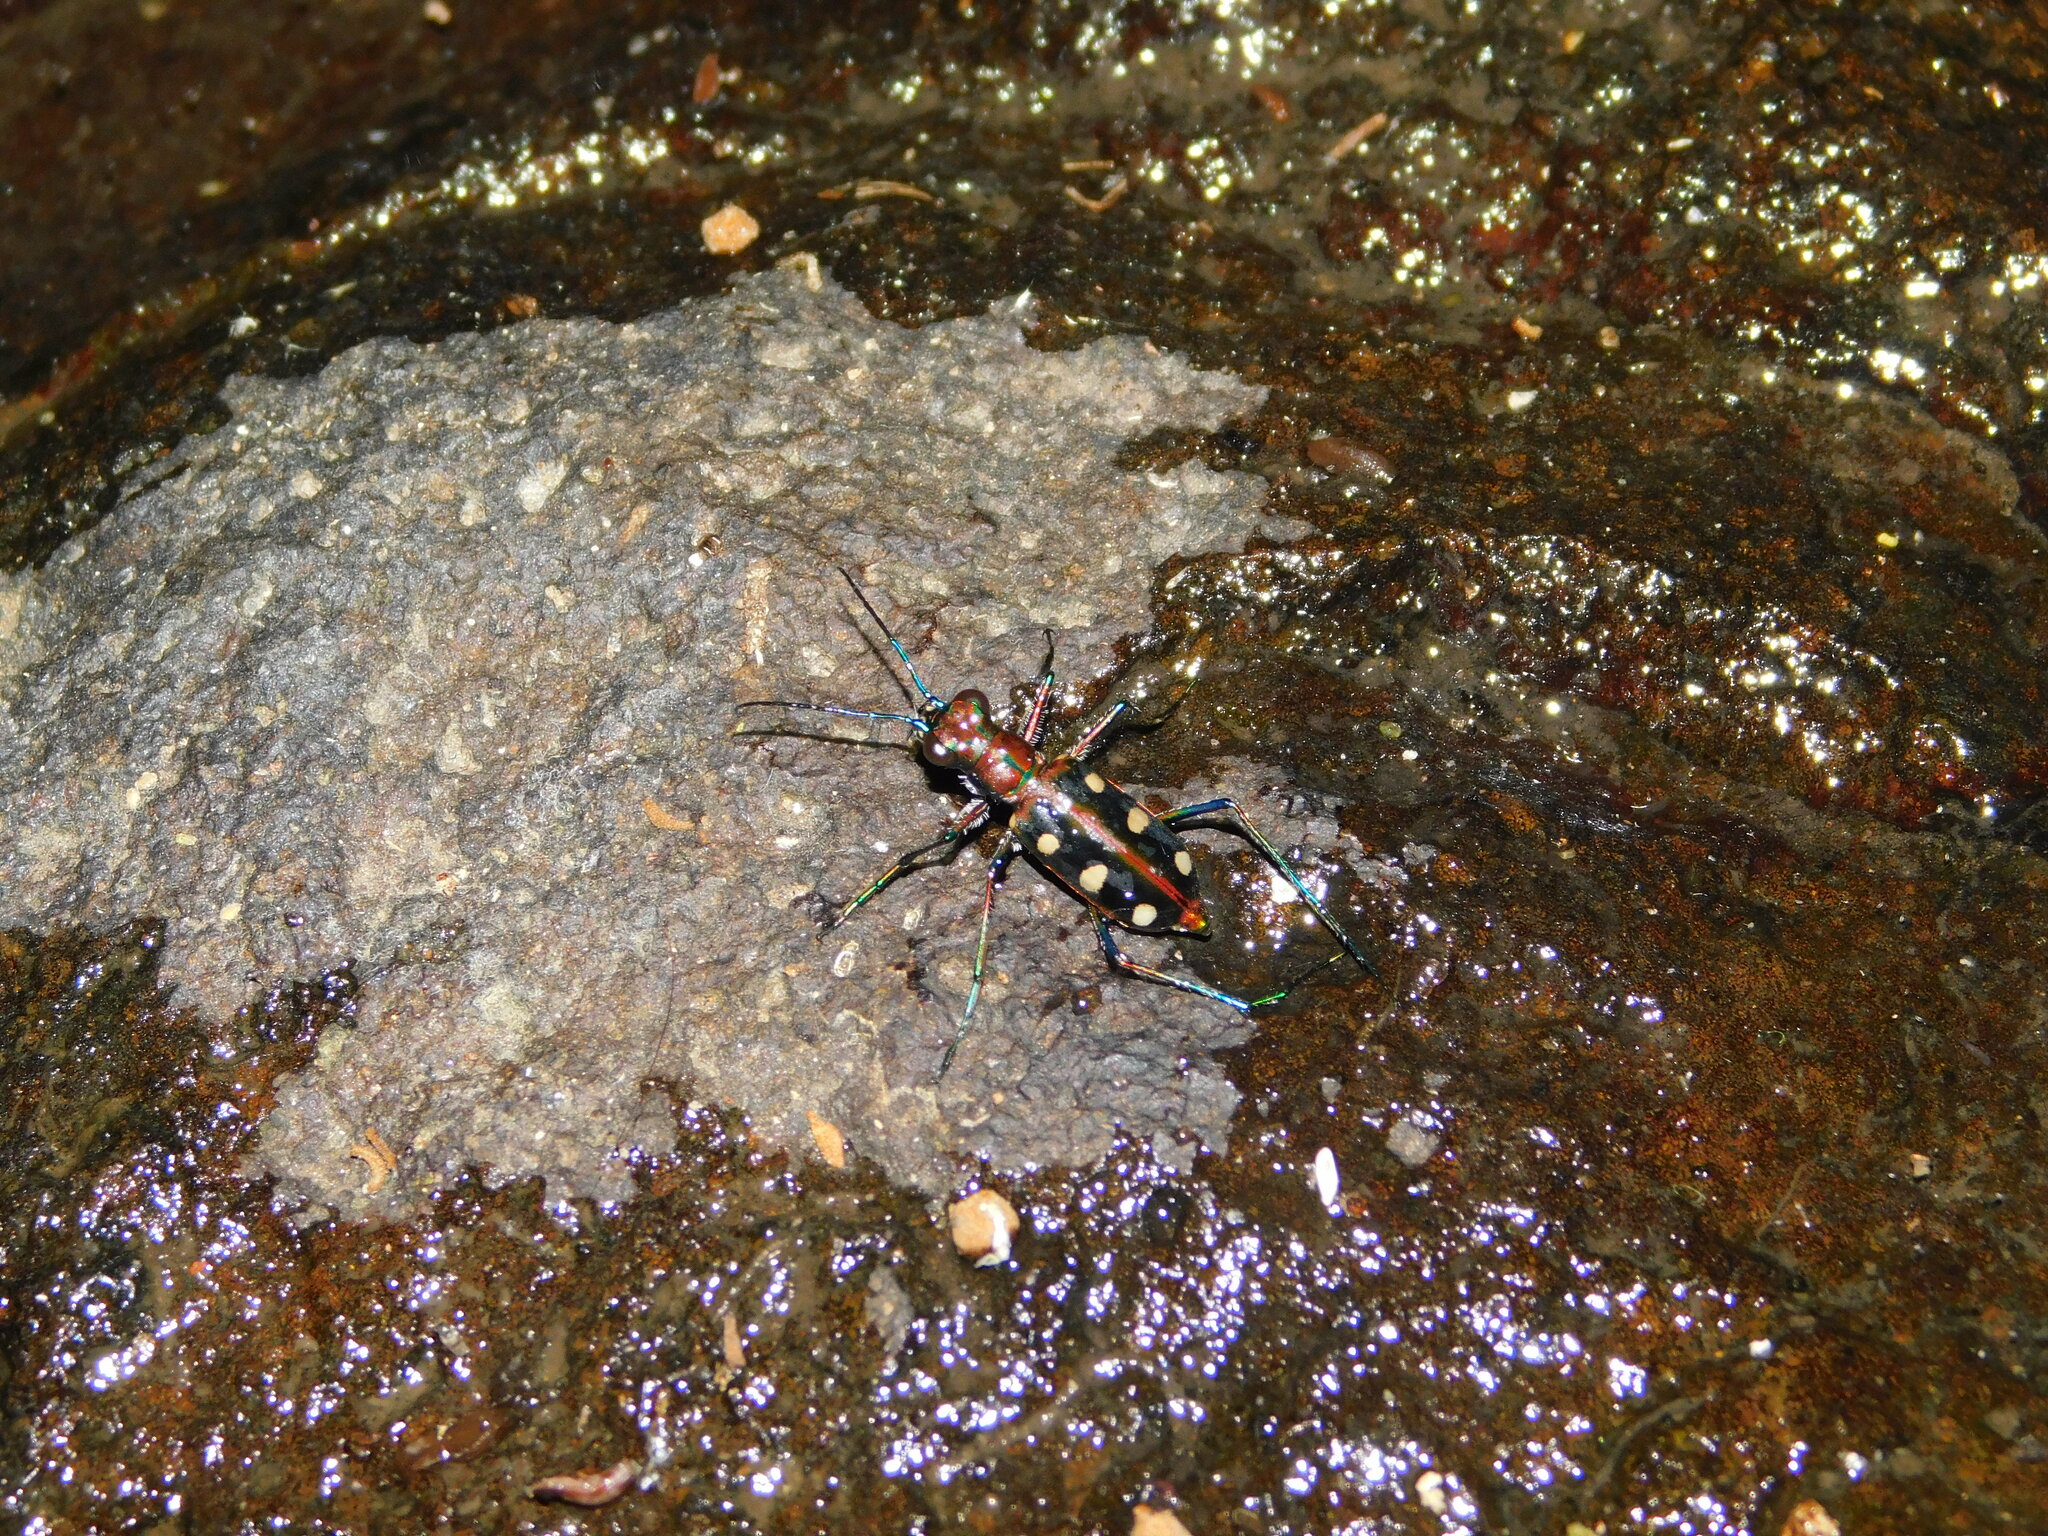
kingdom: Animalia
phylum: Arthropoda
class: Insecta
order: Coleoptera
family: Carabidae
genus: Cicindela
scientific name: Cicindela aurulenta
